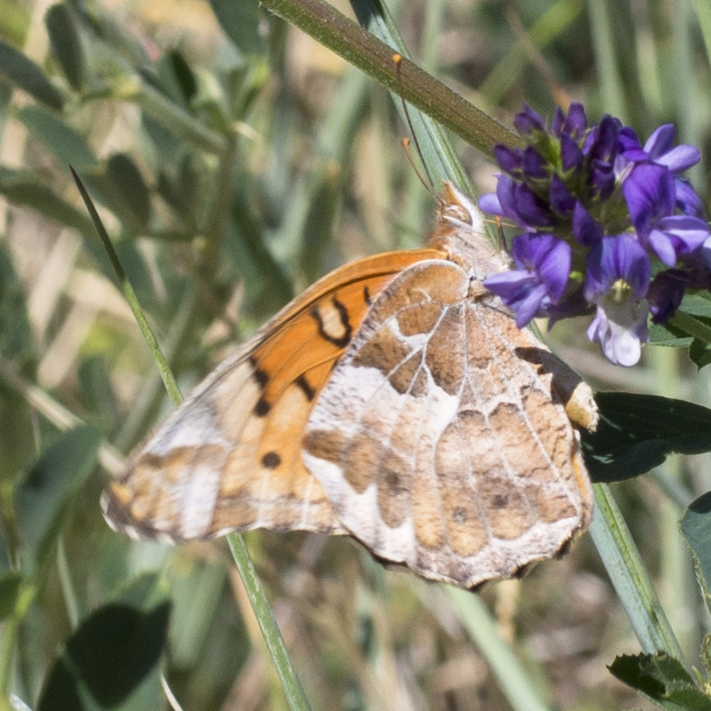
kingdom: Animalia
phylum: Arthropoda
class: Insecta
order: Lepidoptera
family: Nymphalidae
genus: Euptoieta
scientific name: Euptoieta claudia
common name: Variegated fritillary
